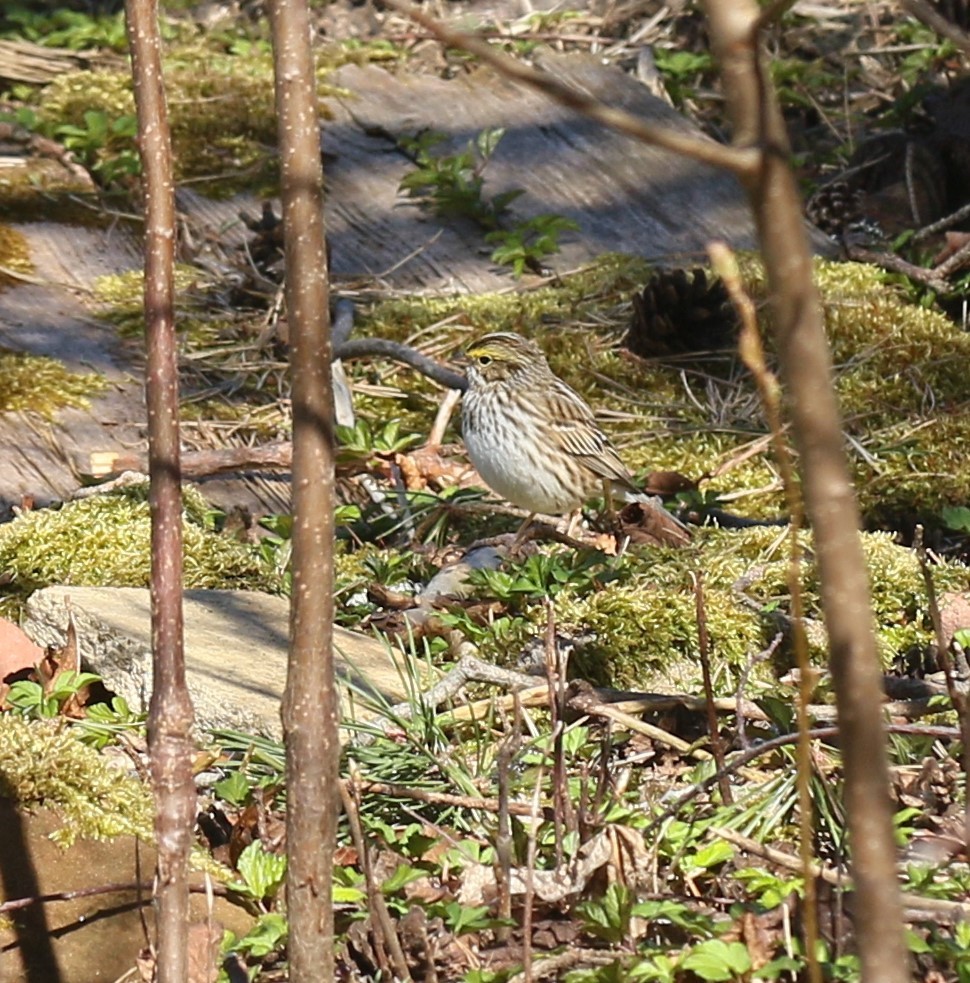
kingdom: Animalia
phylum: Chordata
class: Aves
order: Passeriformes
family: Passerellidae
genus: Passerculus
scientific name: Passerculus sandwichensis
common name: Savannah sparrow
